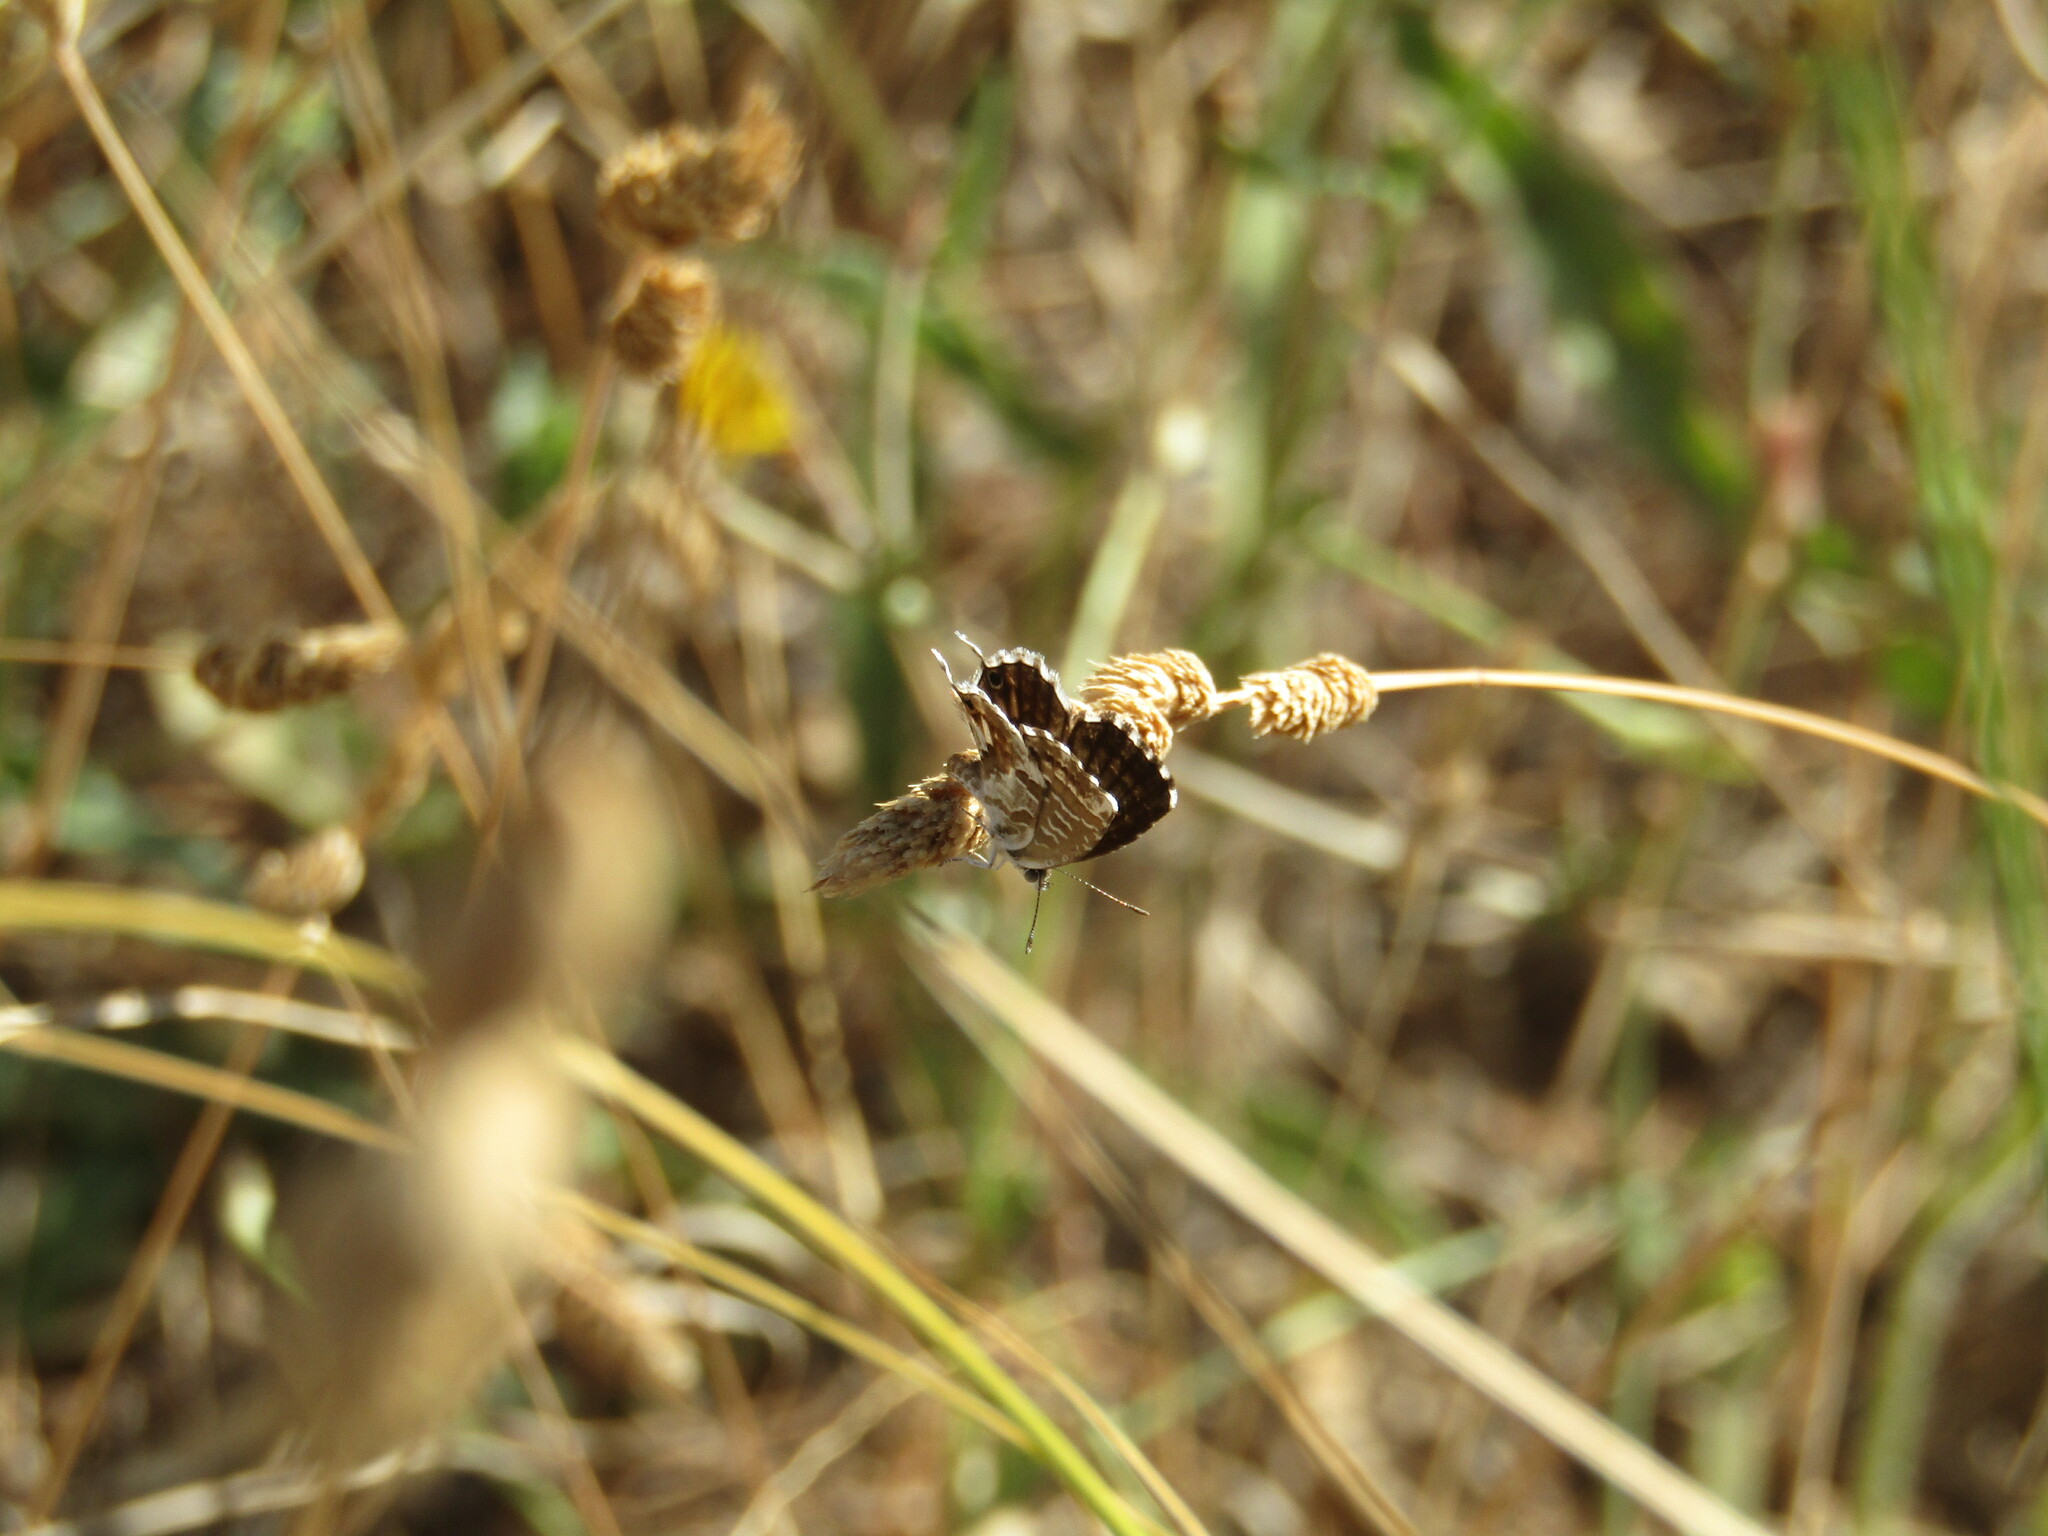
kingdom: Animalia
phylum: Arthropoda
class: Insecta
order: Lepidoptera
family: Lycaenidae
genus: Cacyreus
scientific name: Cacyreus marshalli
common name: Geranium bronze
